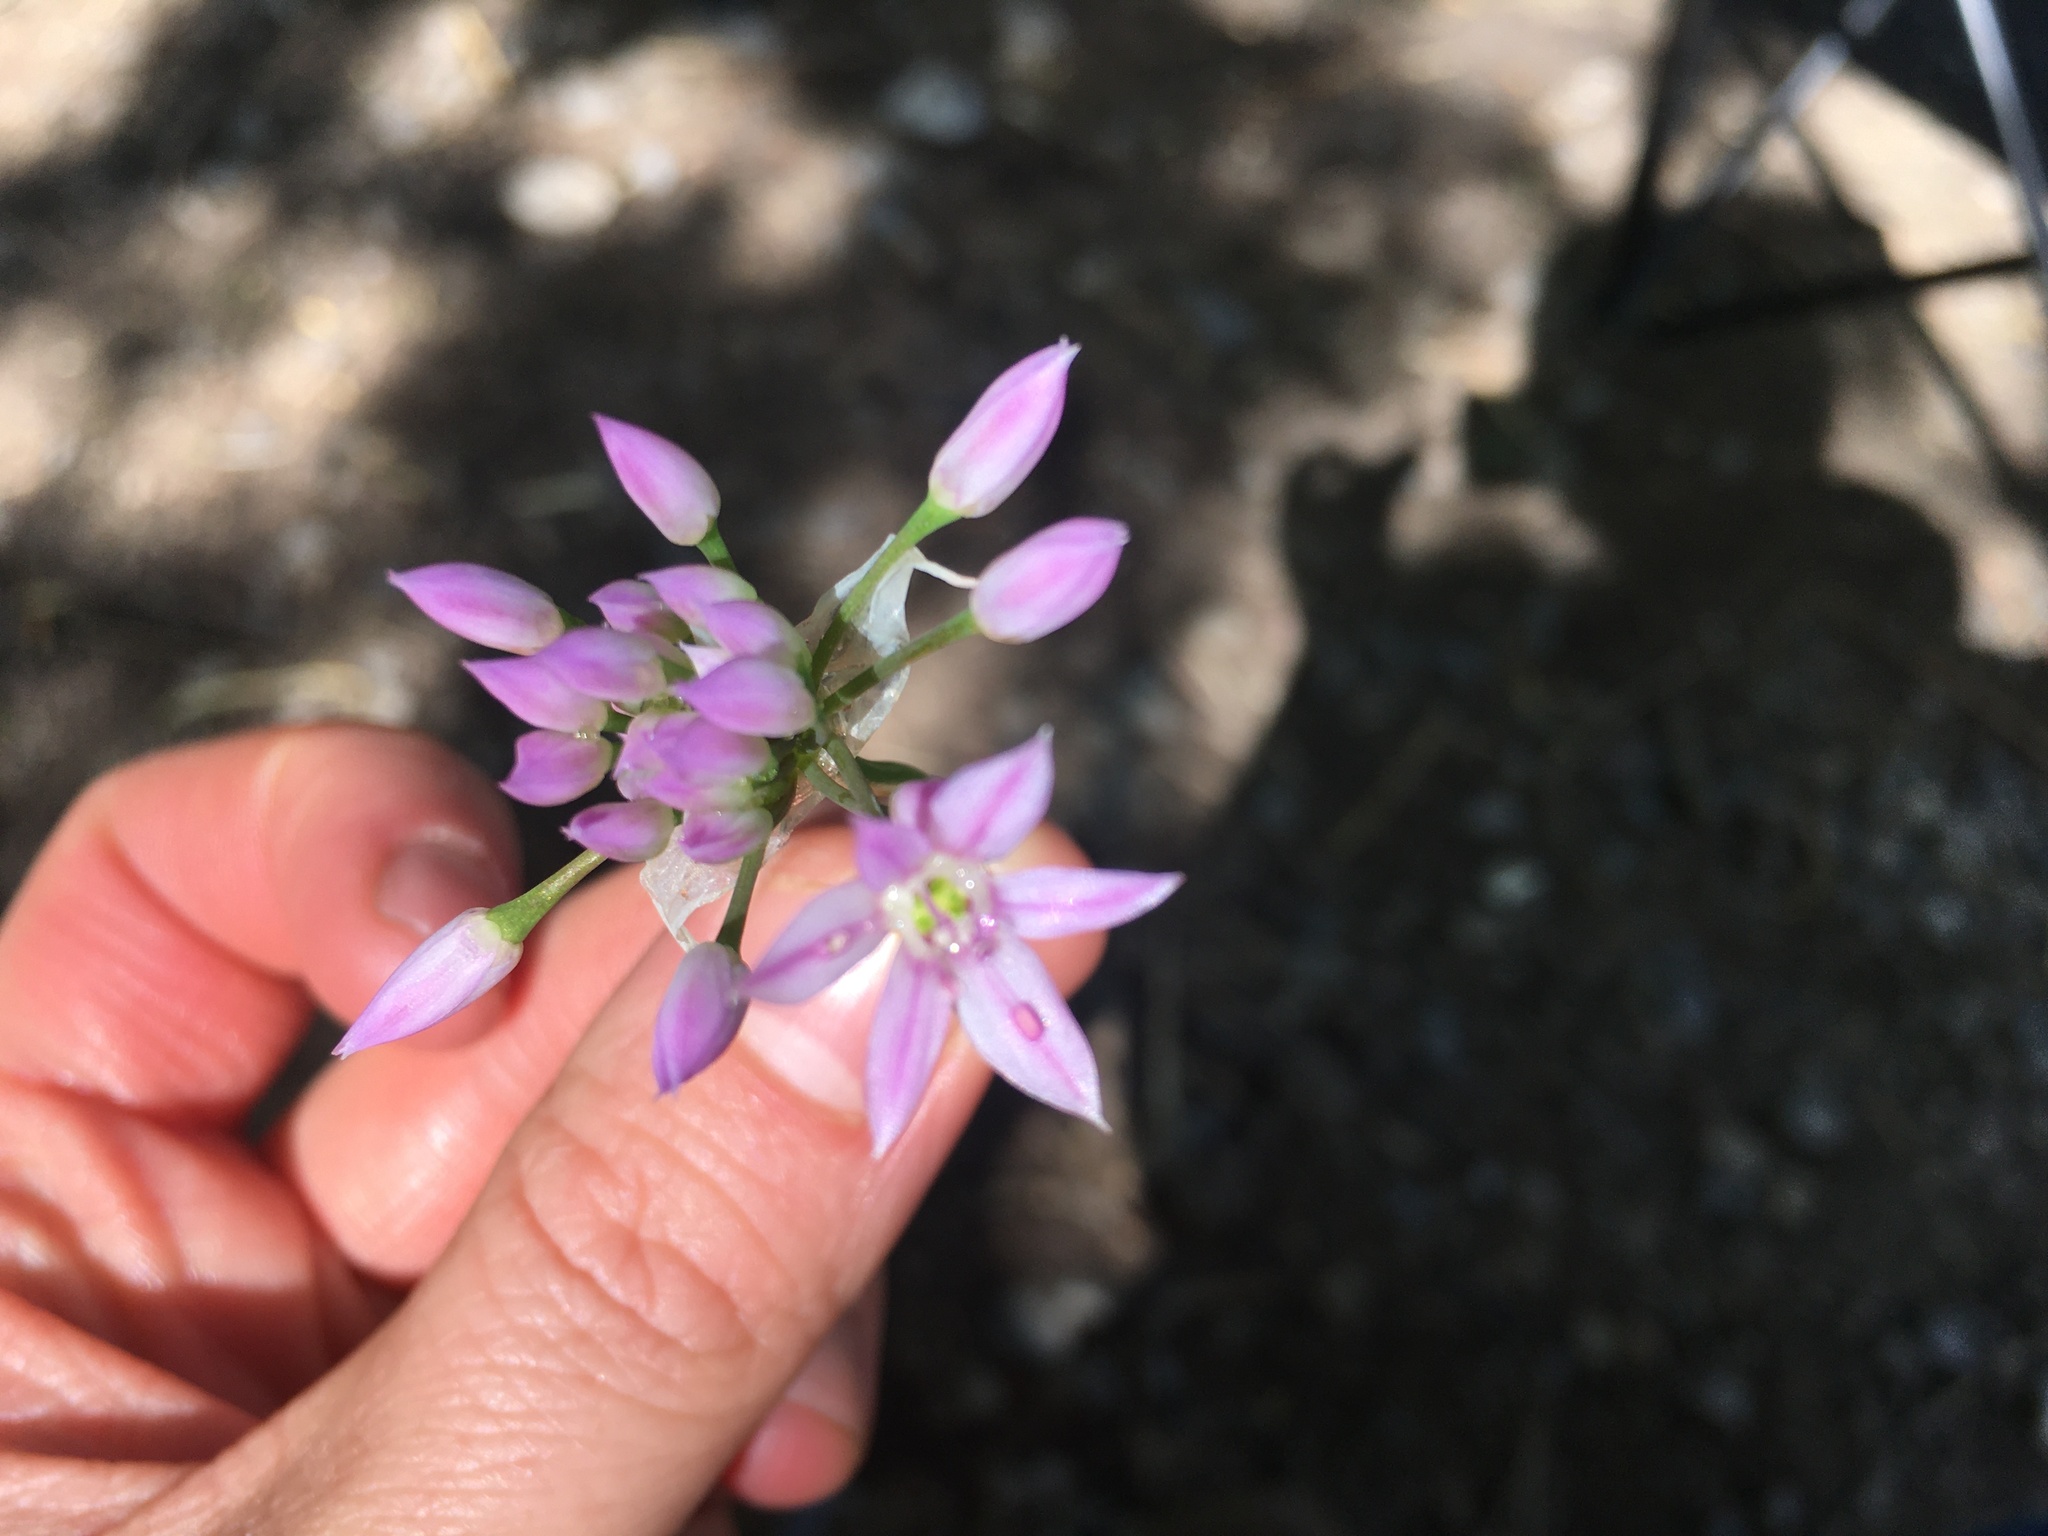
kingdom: Plantae
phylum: Tracheophyta
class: Liliopsida
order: Asparagales
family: Amaryllidaceae
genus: Allium
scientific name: Allium bisceptrum
